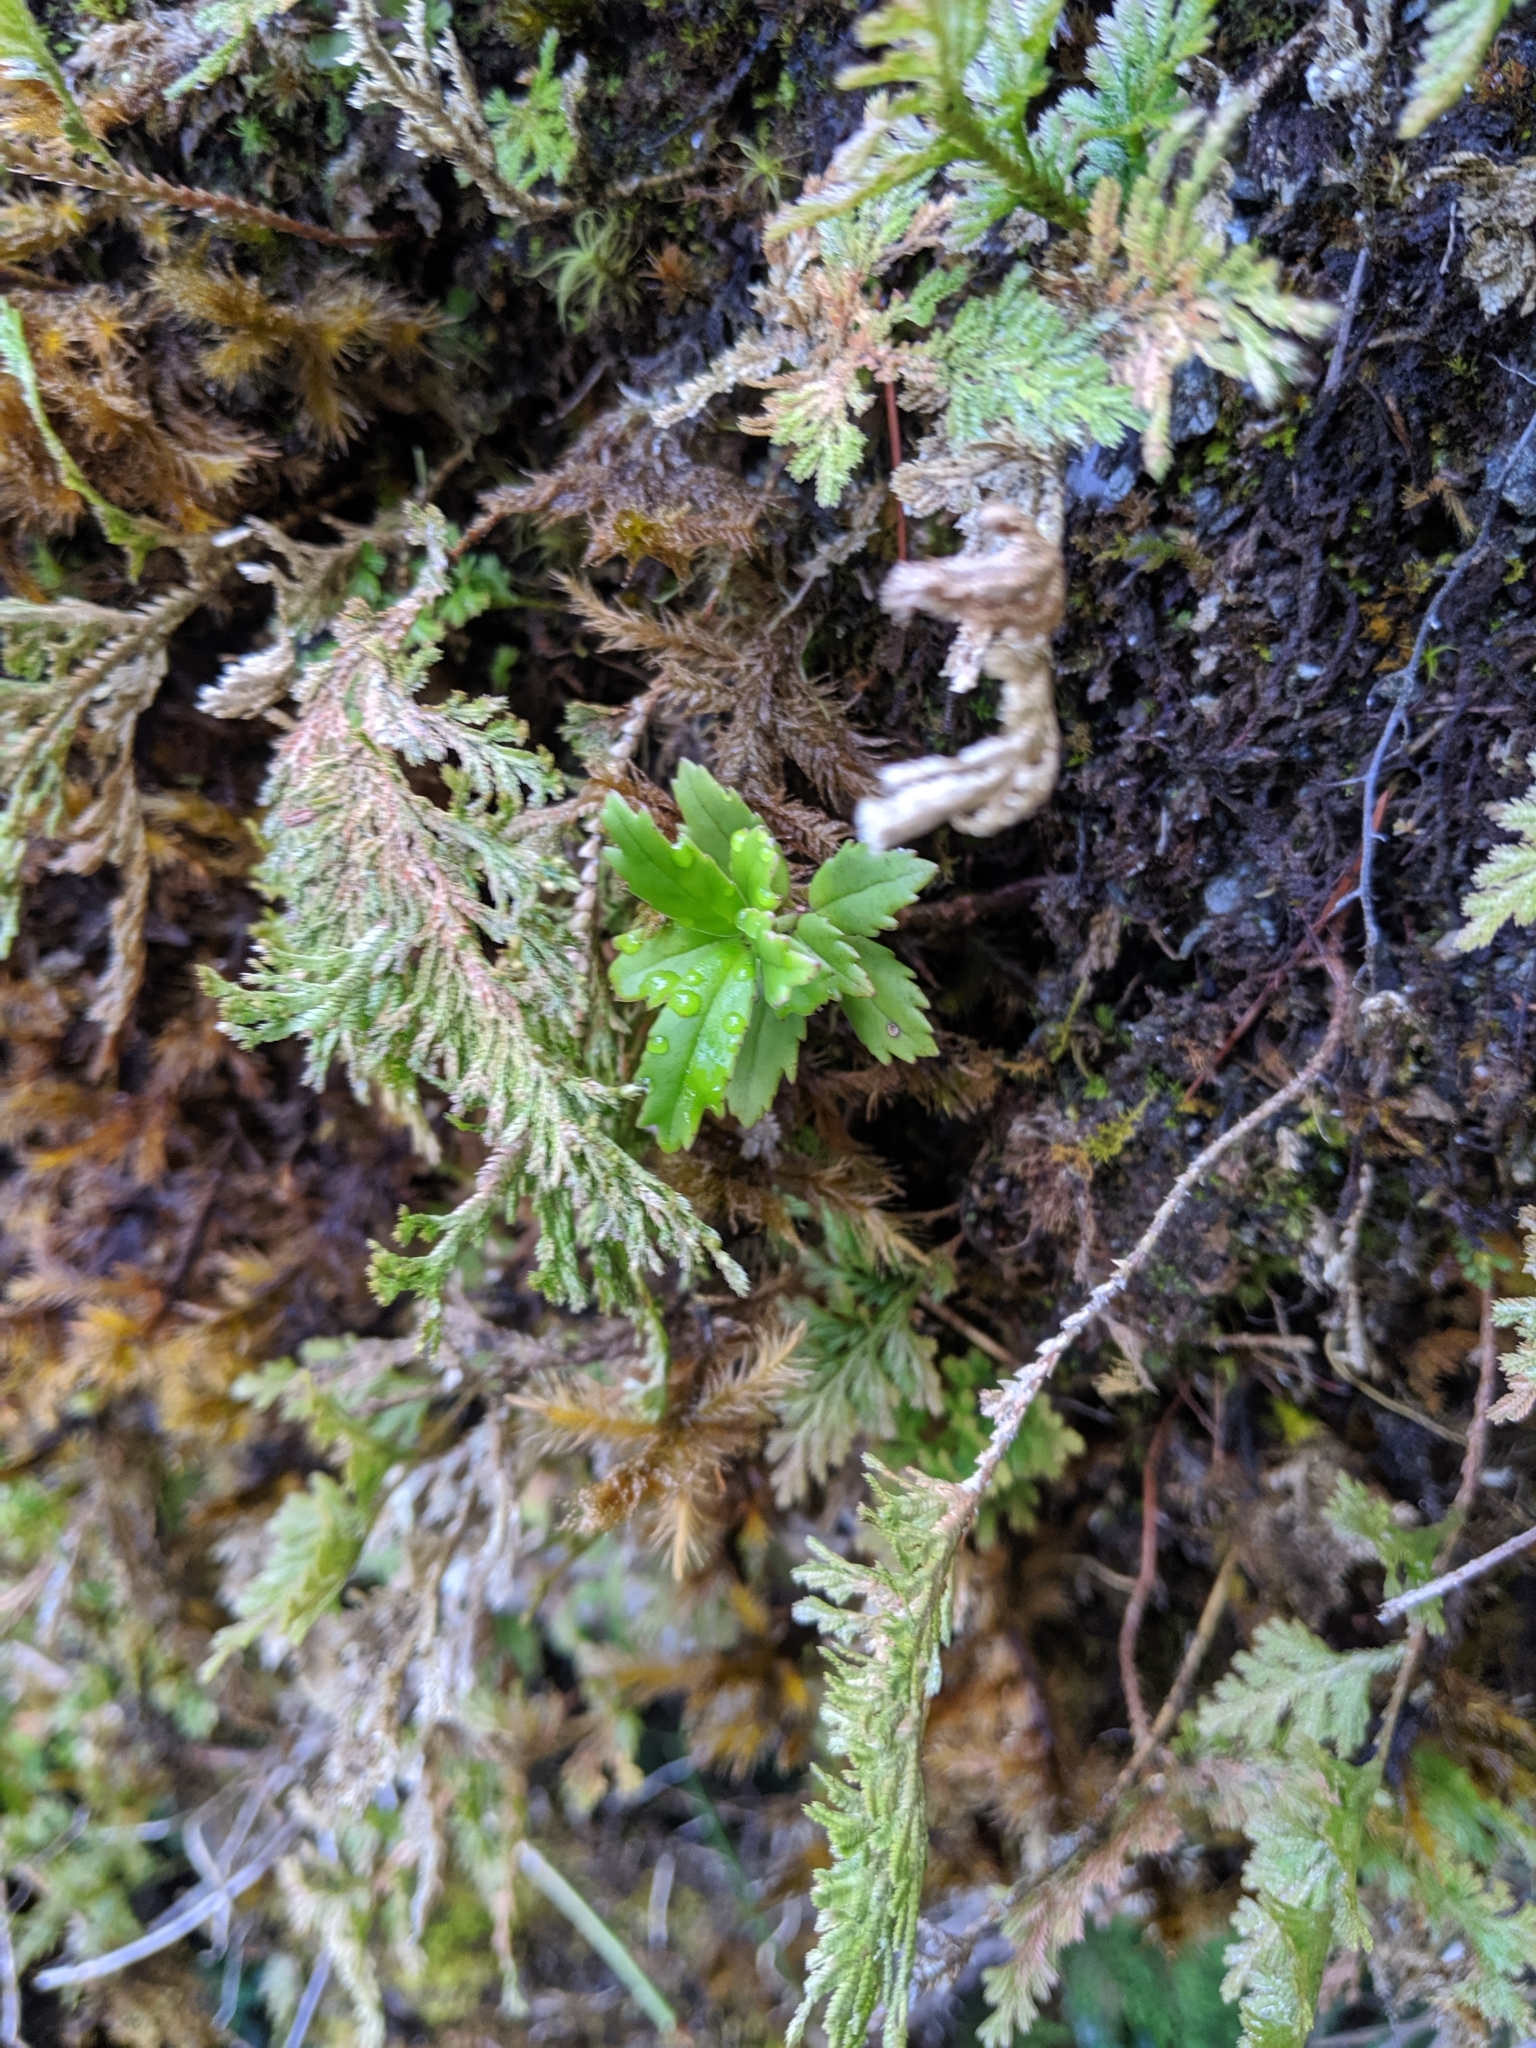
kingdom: Plantae
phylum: Tracheophyta
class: Magnoliopsida
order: Lamiales
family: Gesneriaceae
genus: Lysionotus
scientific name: Lysionotus pauciflorus
